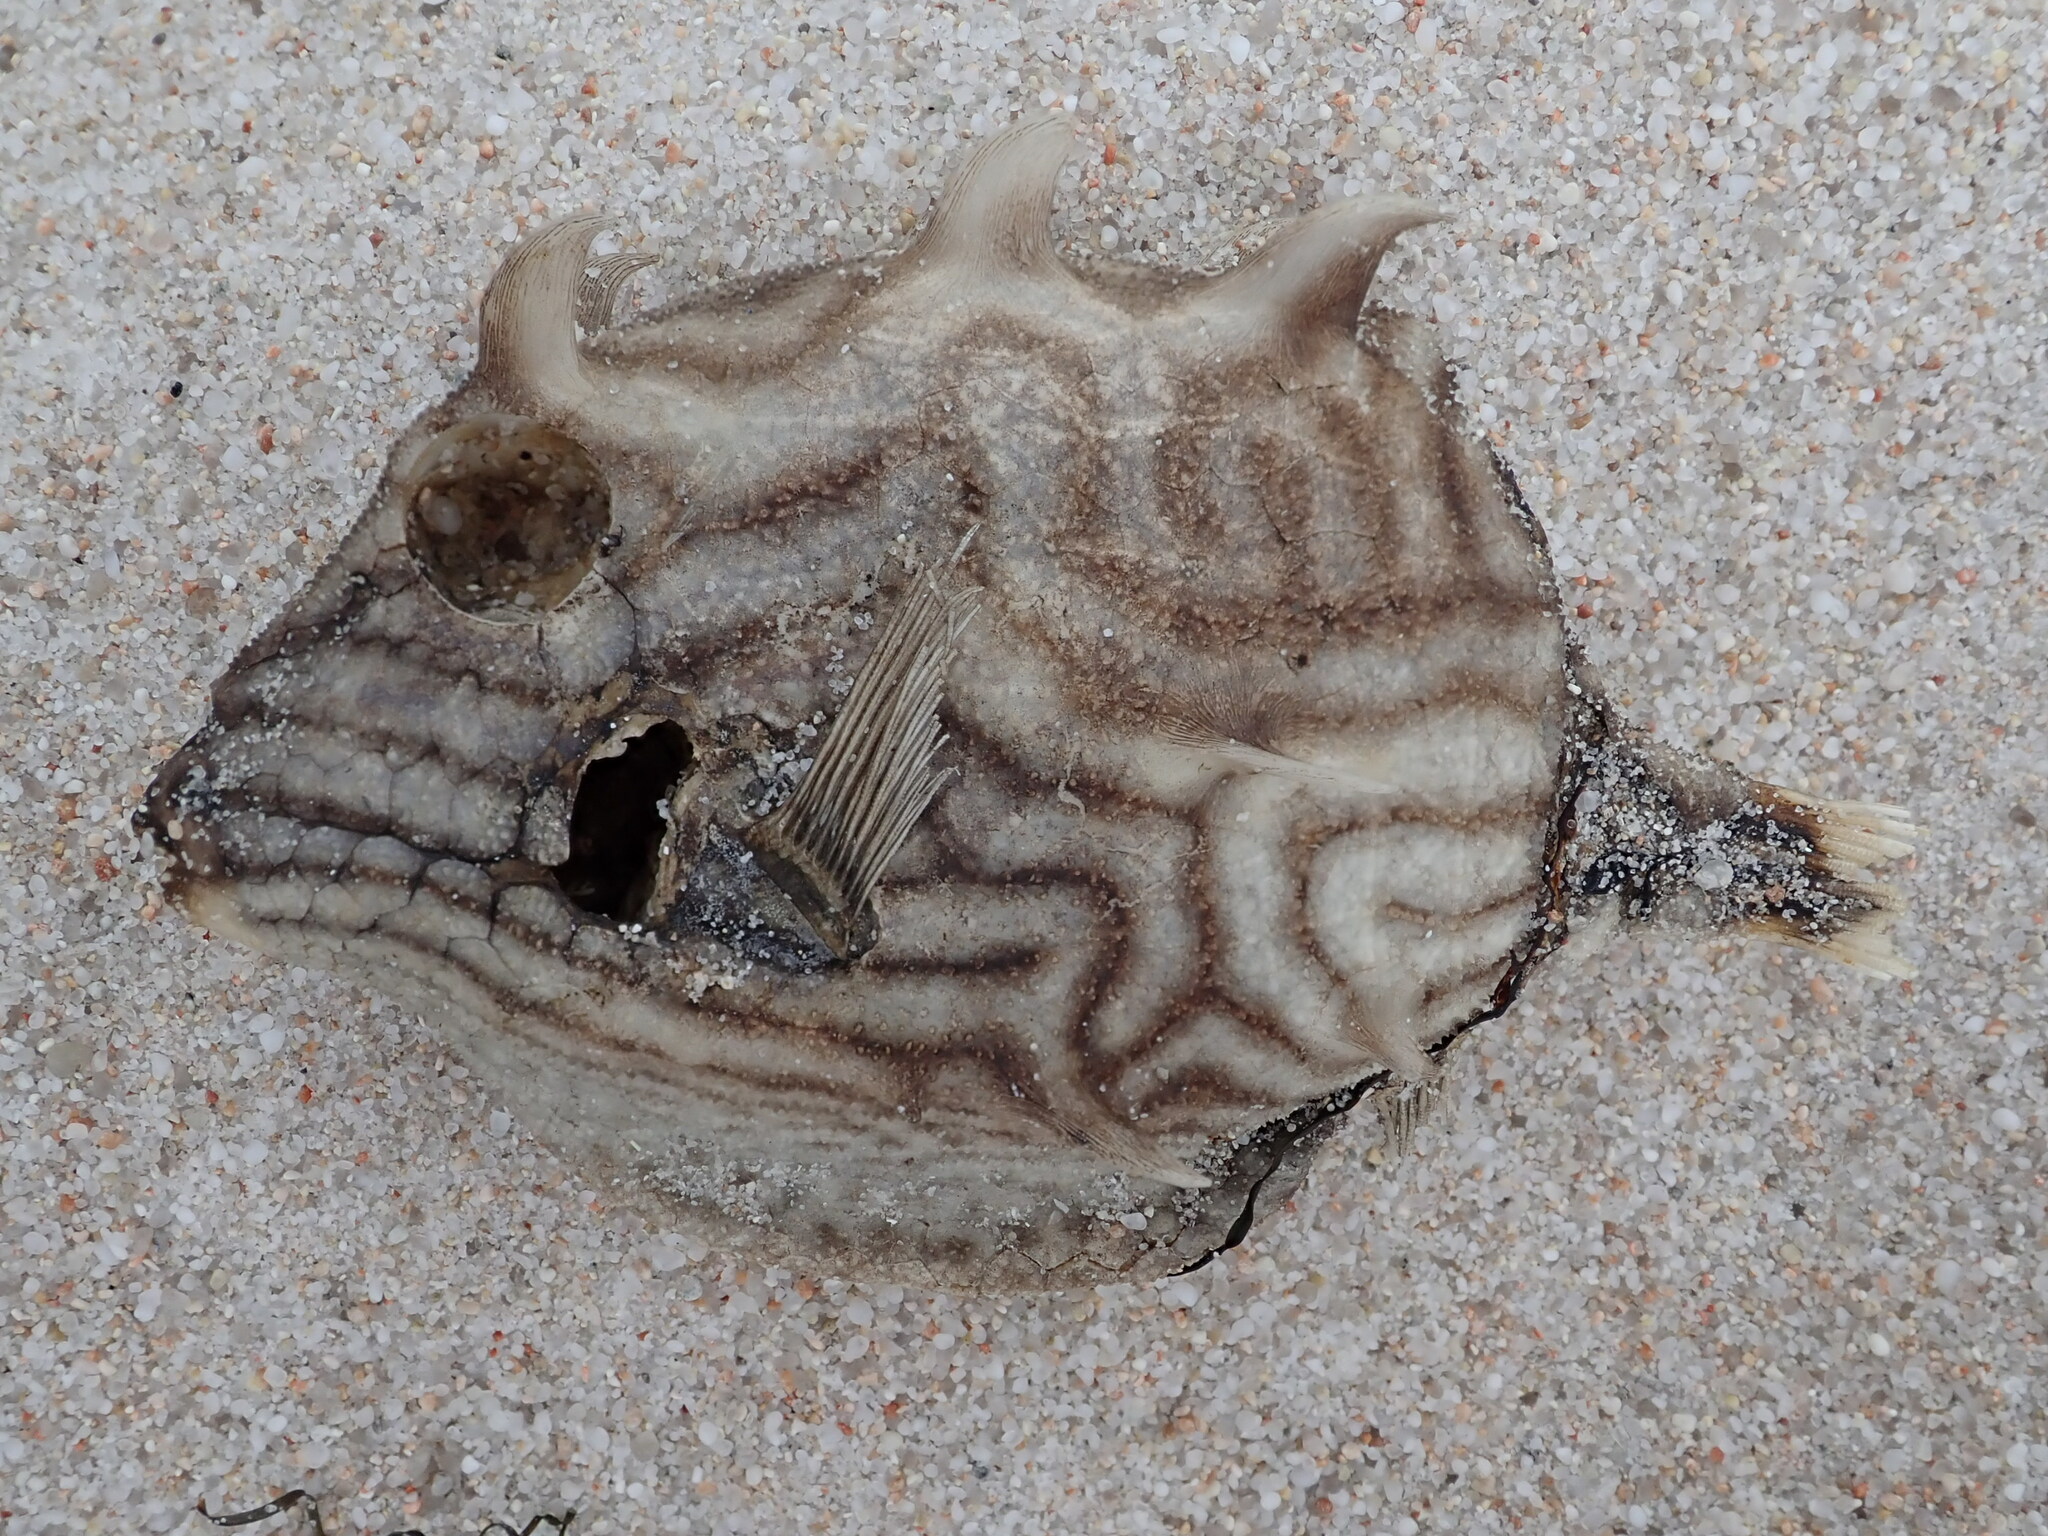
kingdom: Animalia
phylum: Chordata
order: Tetraodontiformes
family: Aracanidae
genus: Aracana
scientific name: Aracana aurita
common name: Shaw’s cowfish
